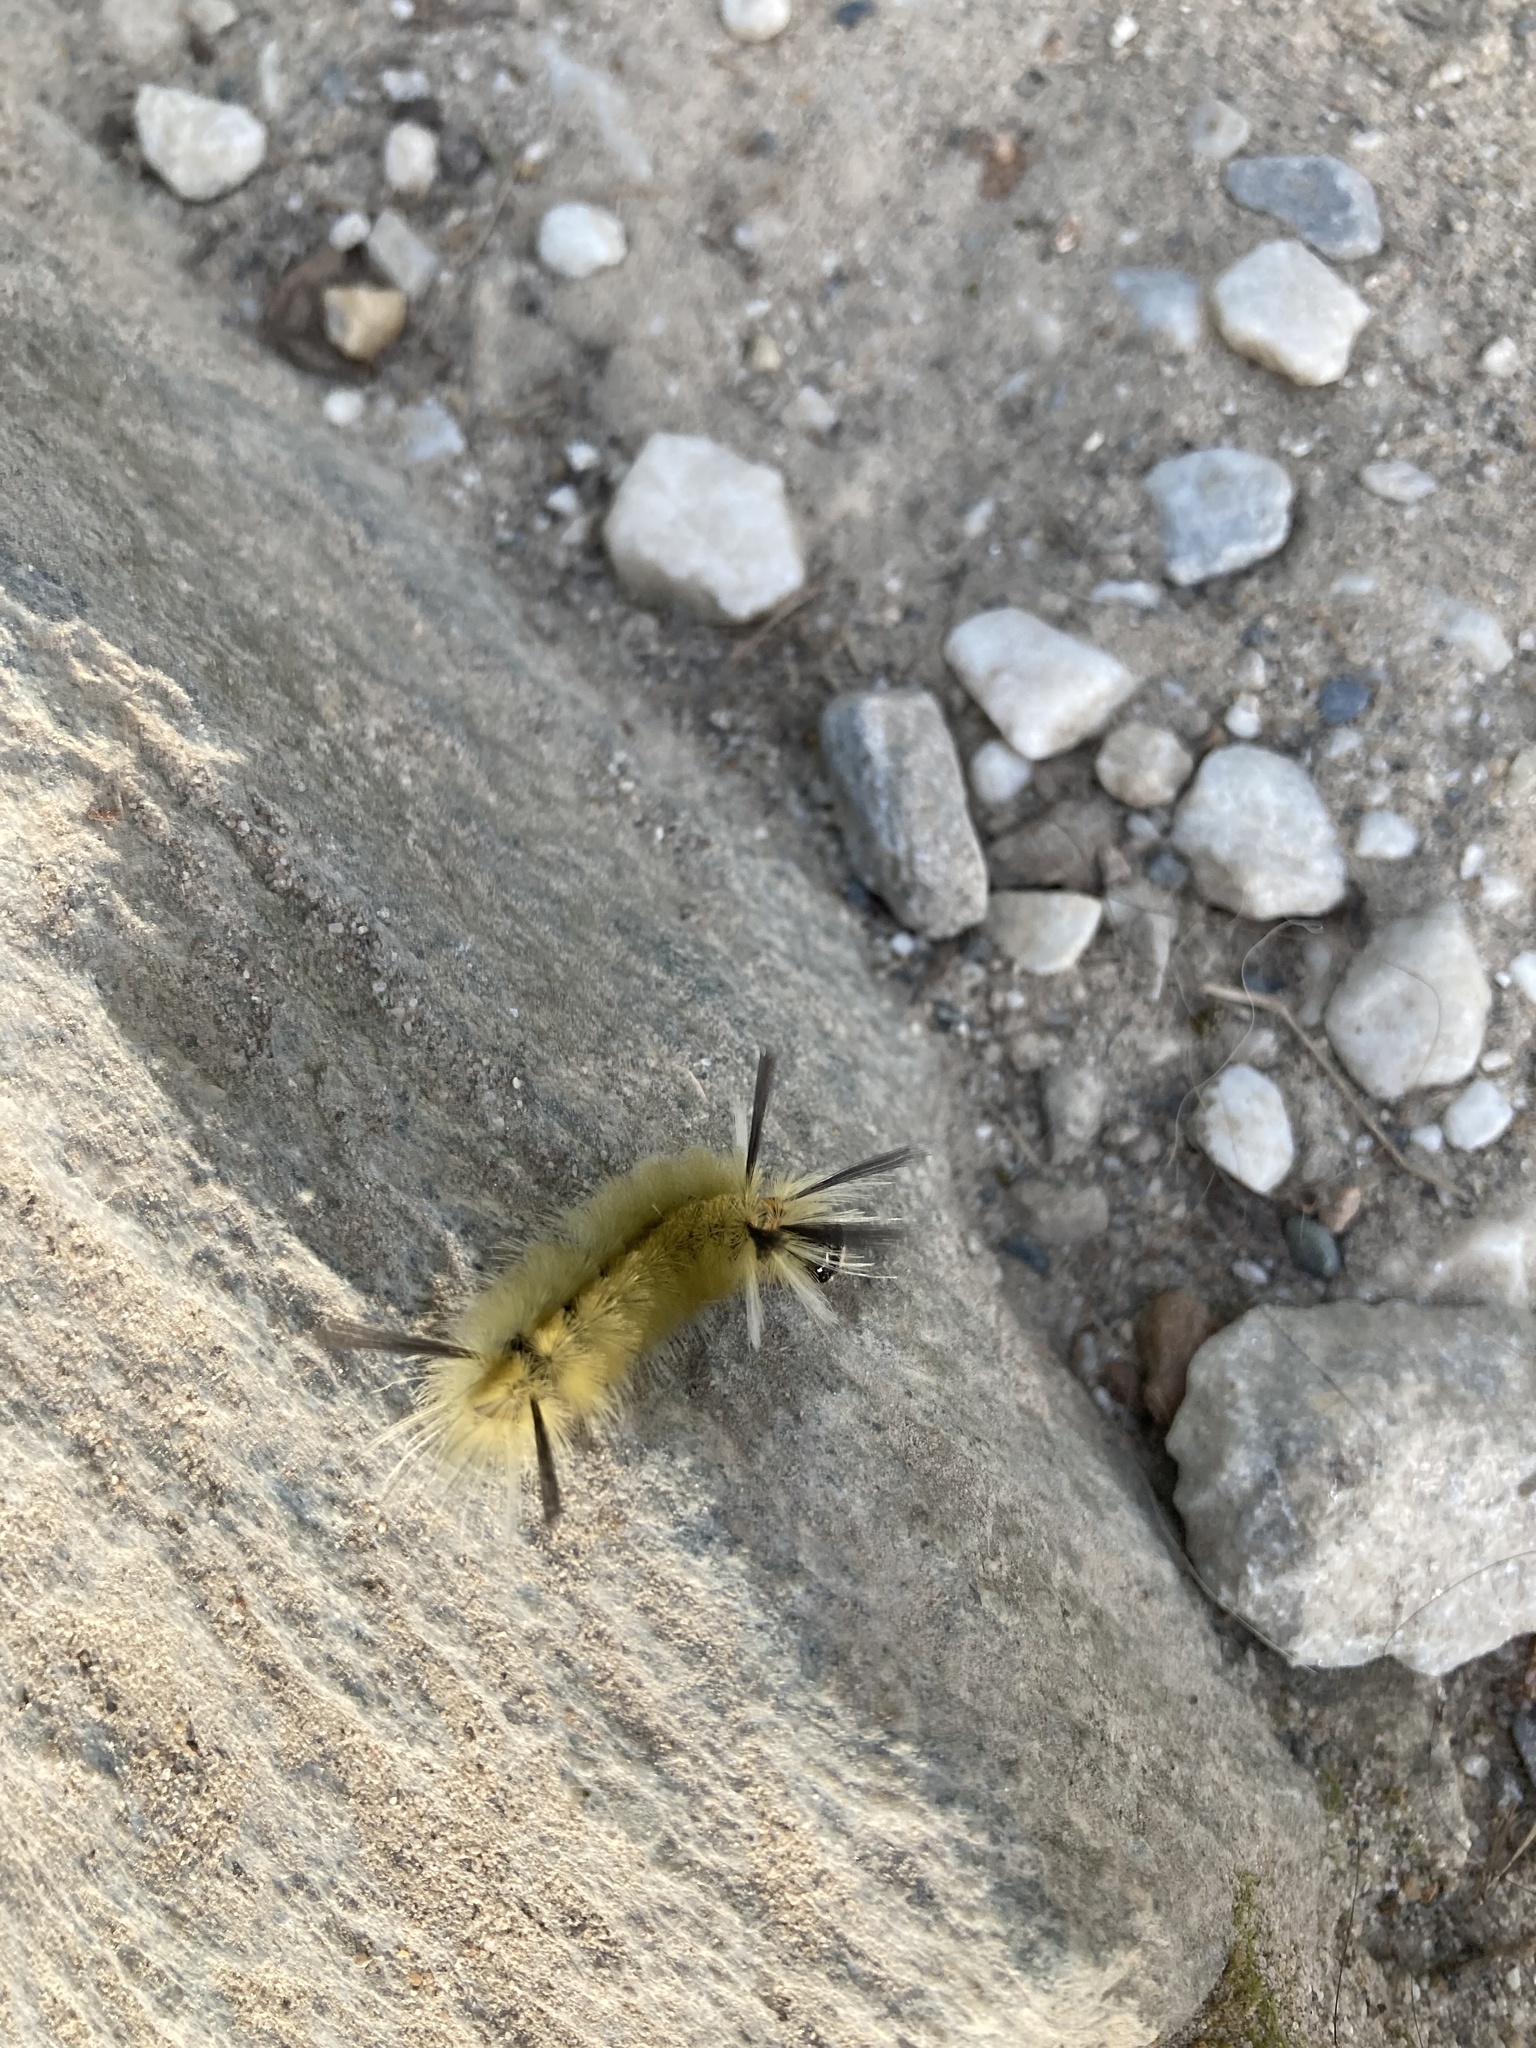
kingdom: Animalia
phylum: Arthropoda
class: Insecta
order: Lepidoptera
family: Erebidae
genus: Halysidota
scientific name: Halysidota tessellaris
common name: Banded tussock moth
